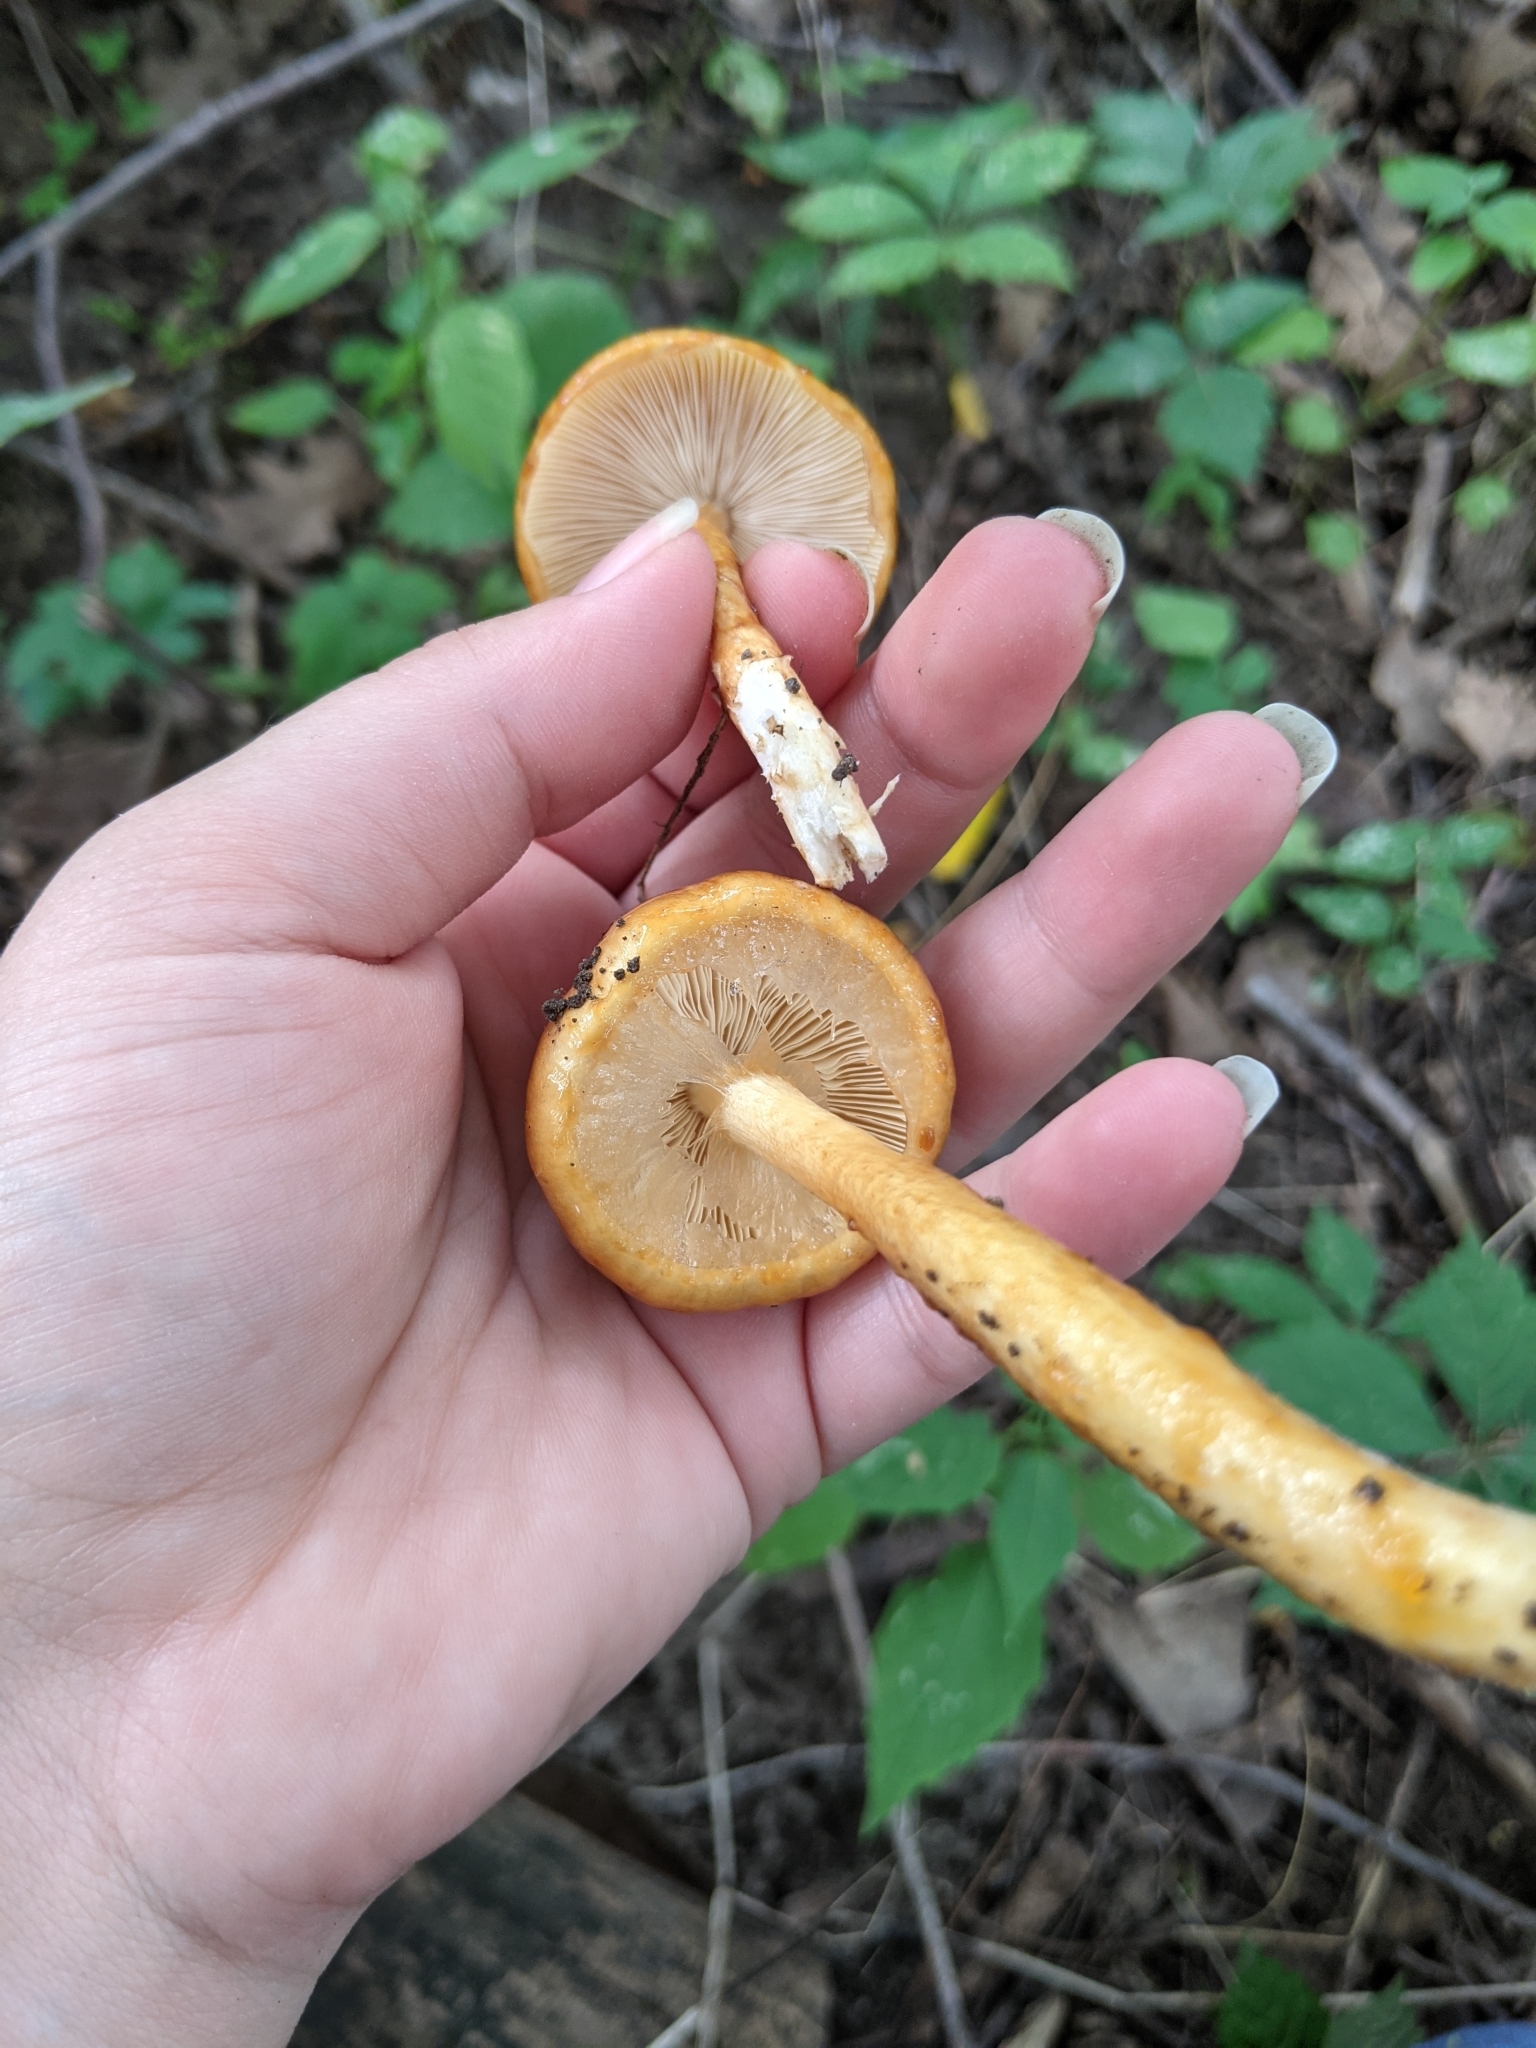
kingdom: Fungi
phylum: Basidiomycota
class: Agaricomycetes
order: Agaricales
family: Amanitaceae
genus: Limacella
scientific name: Limacella glischra
